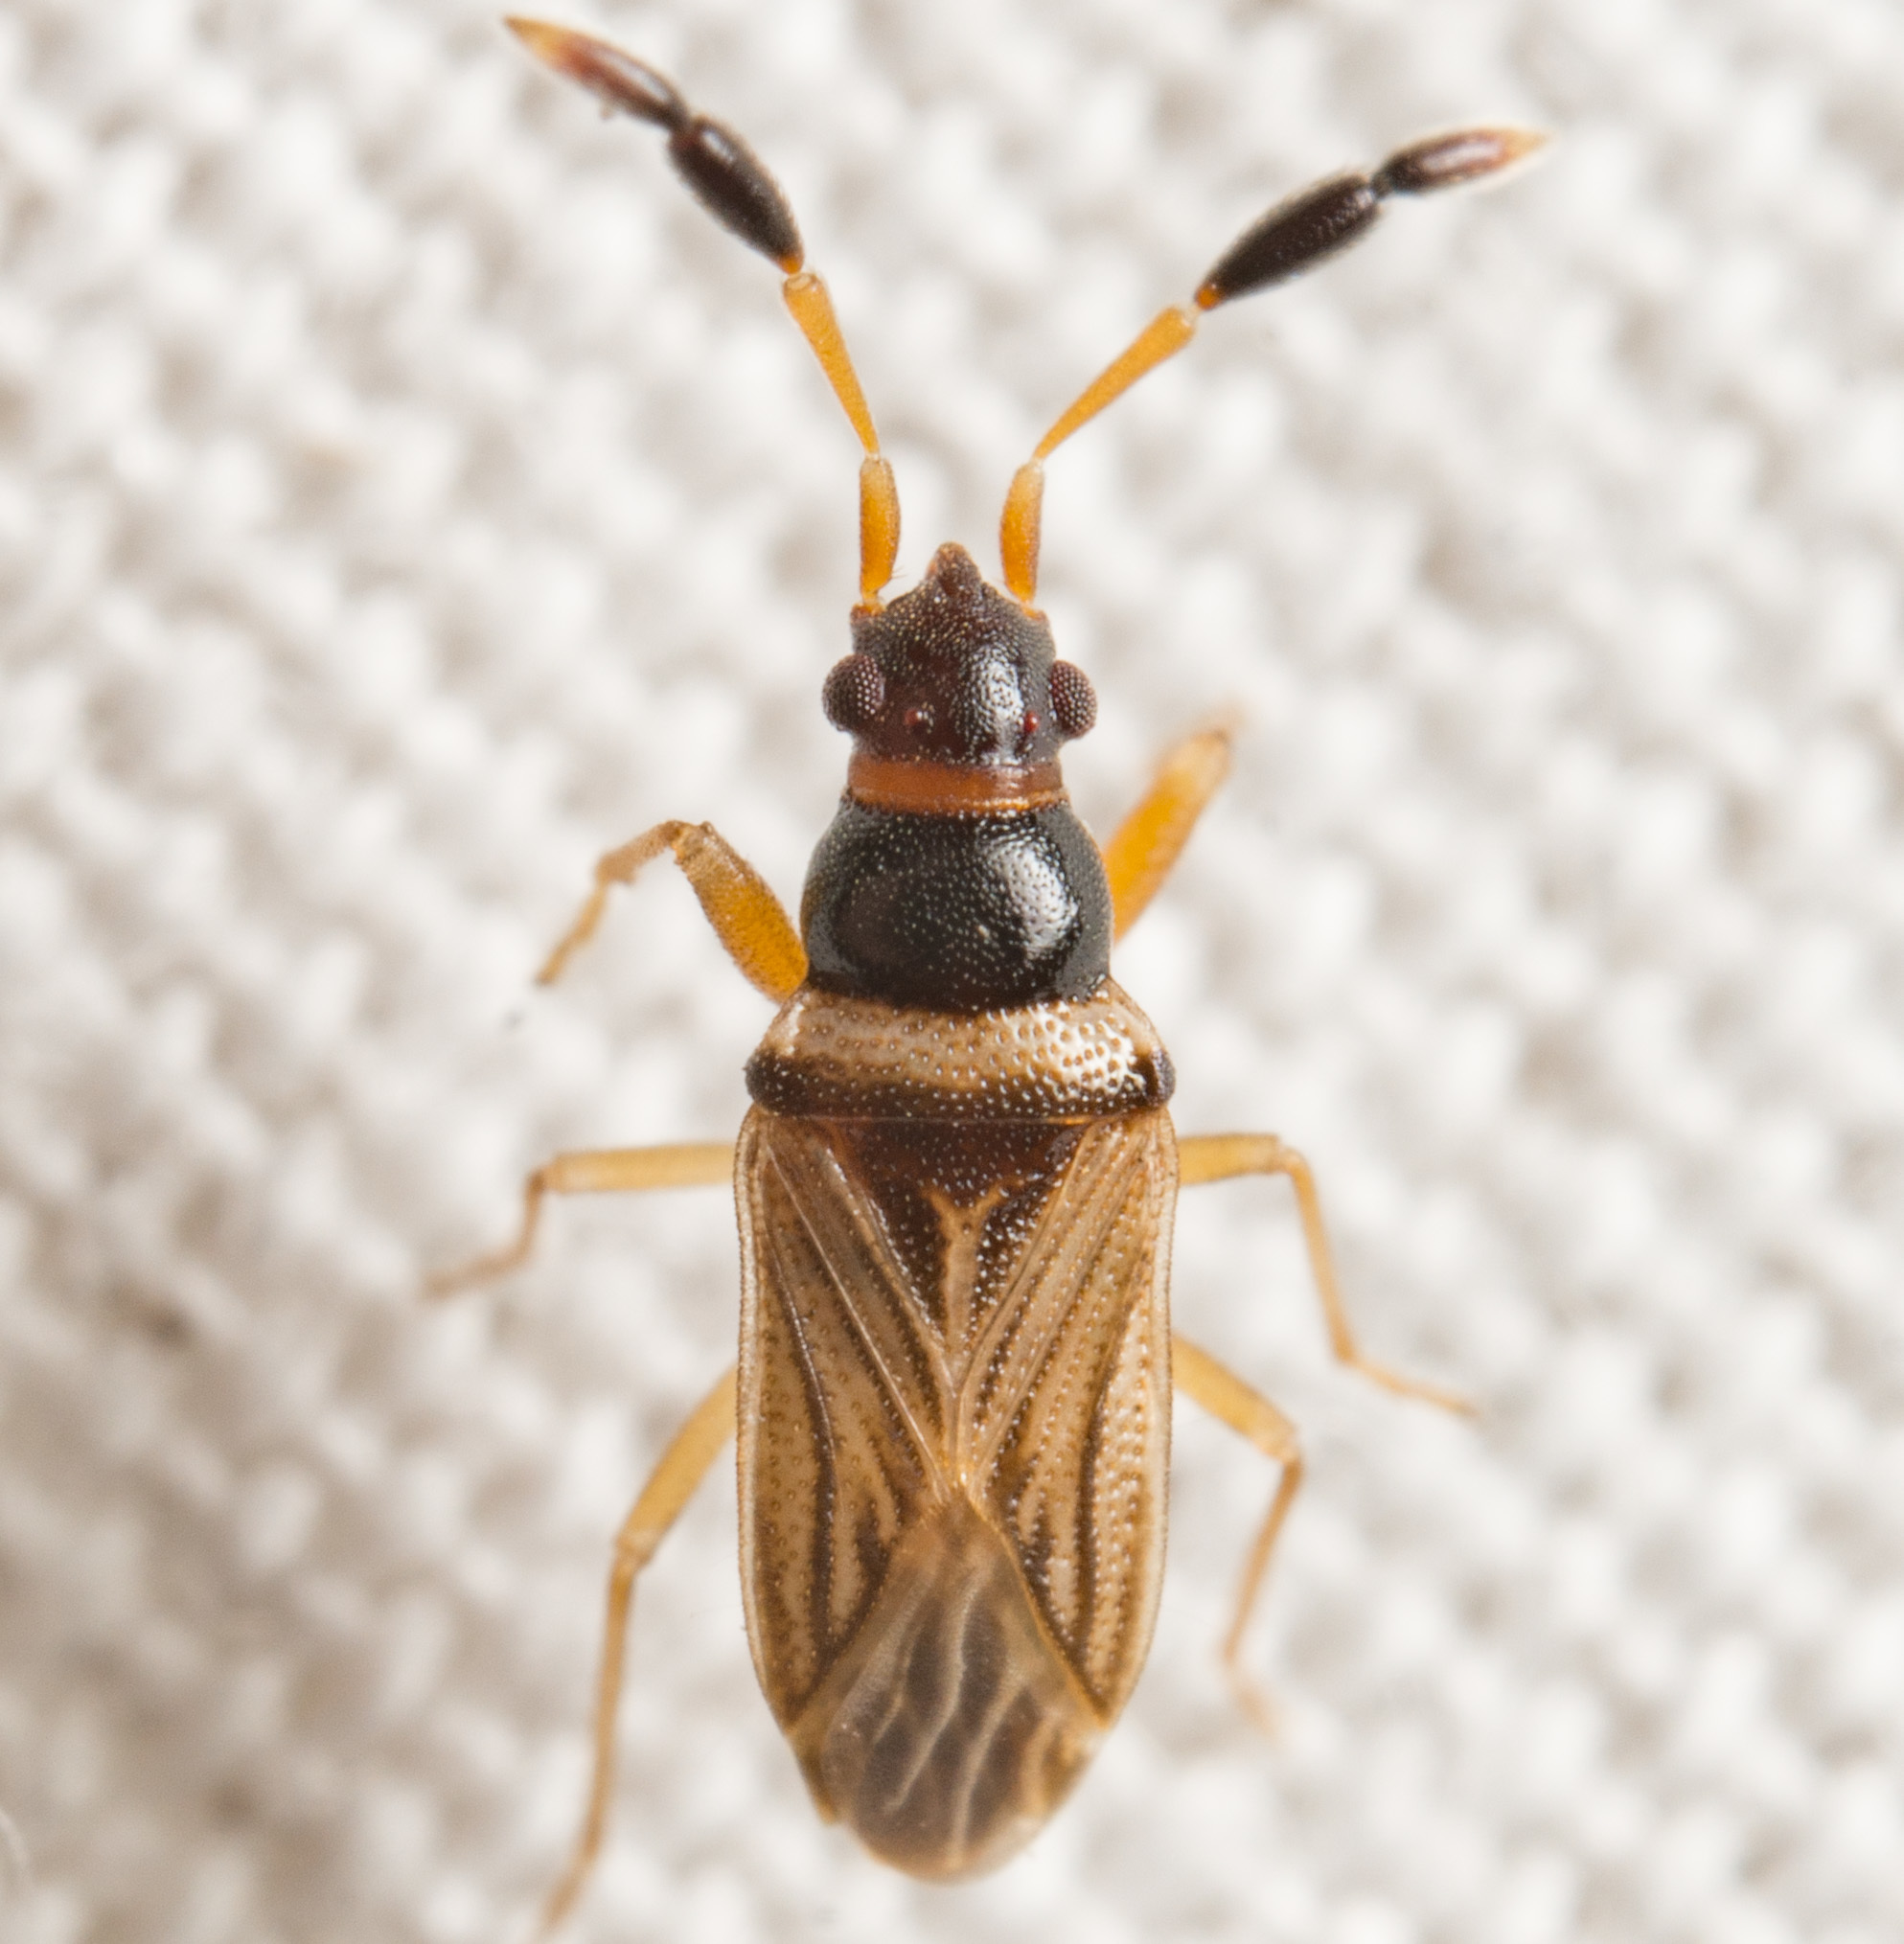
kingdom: Animalia
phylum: Arthropoda
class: Insecta
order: Hemiptera
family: Rhyparochromidae
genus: Ptochiomera
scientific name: Ptochiomera nodosa
